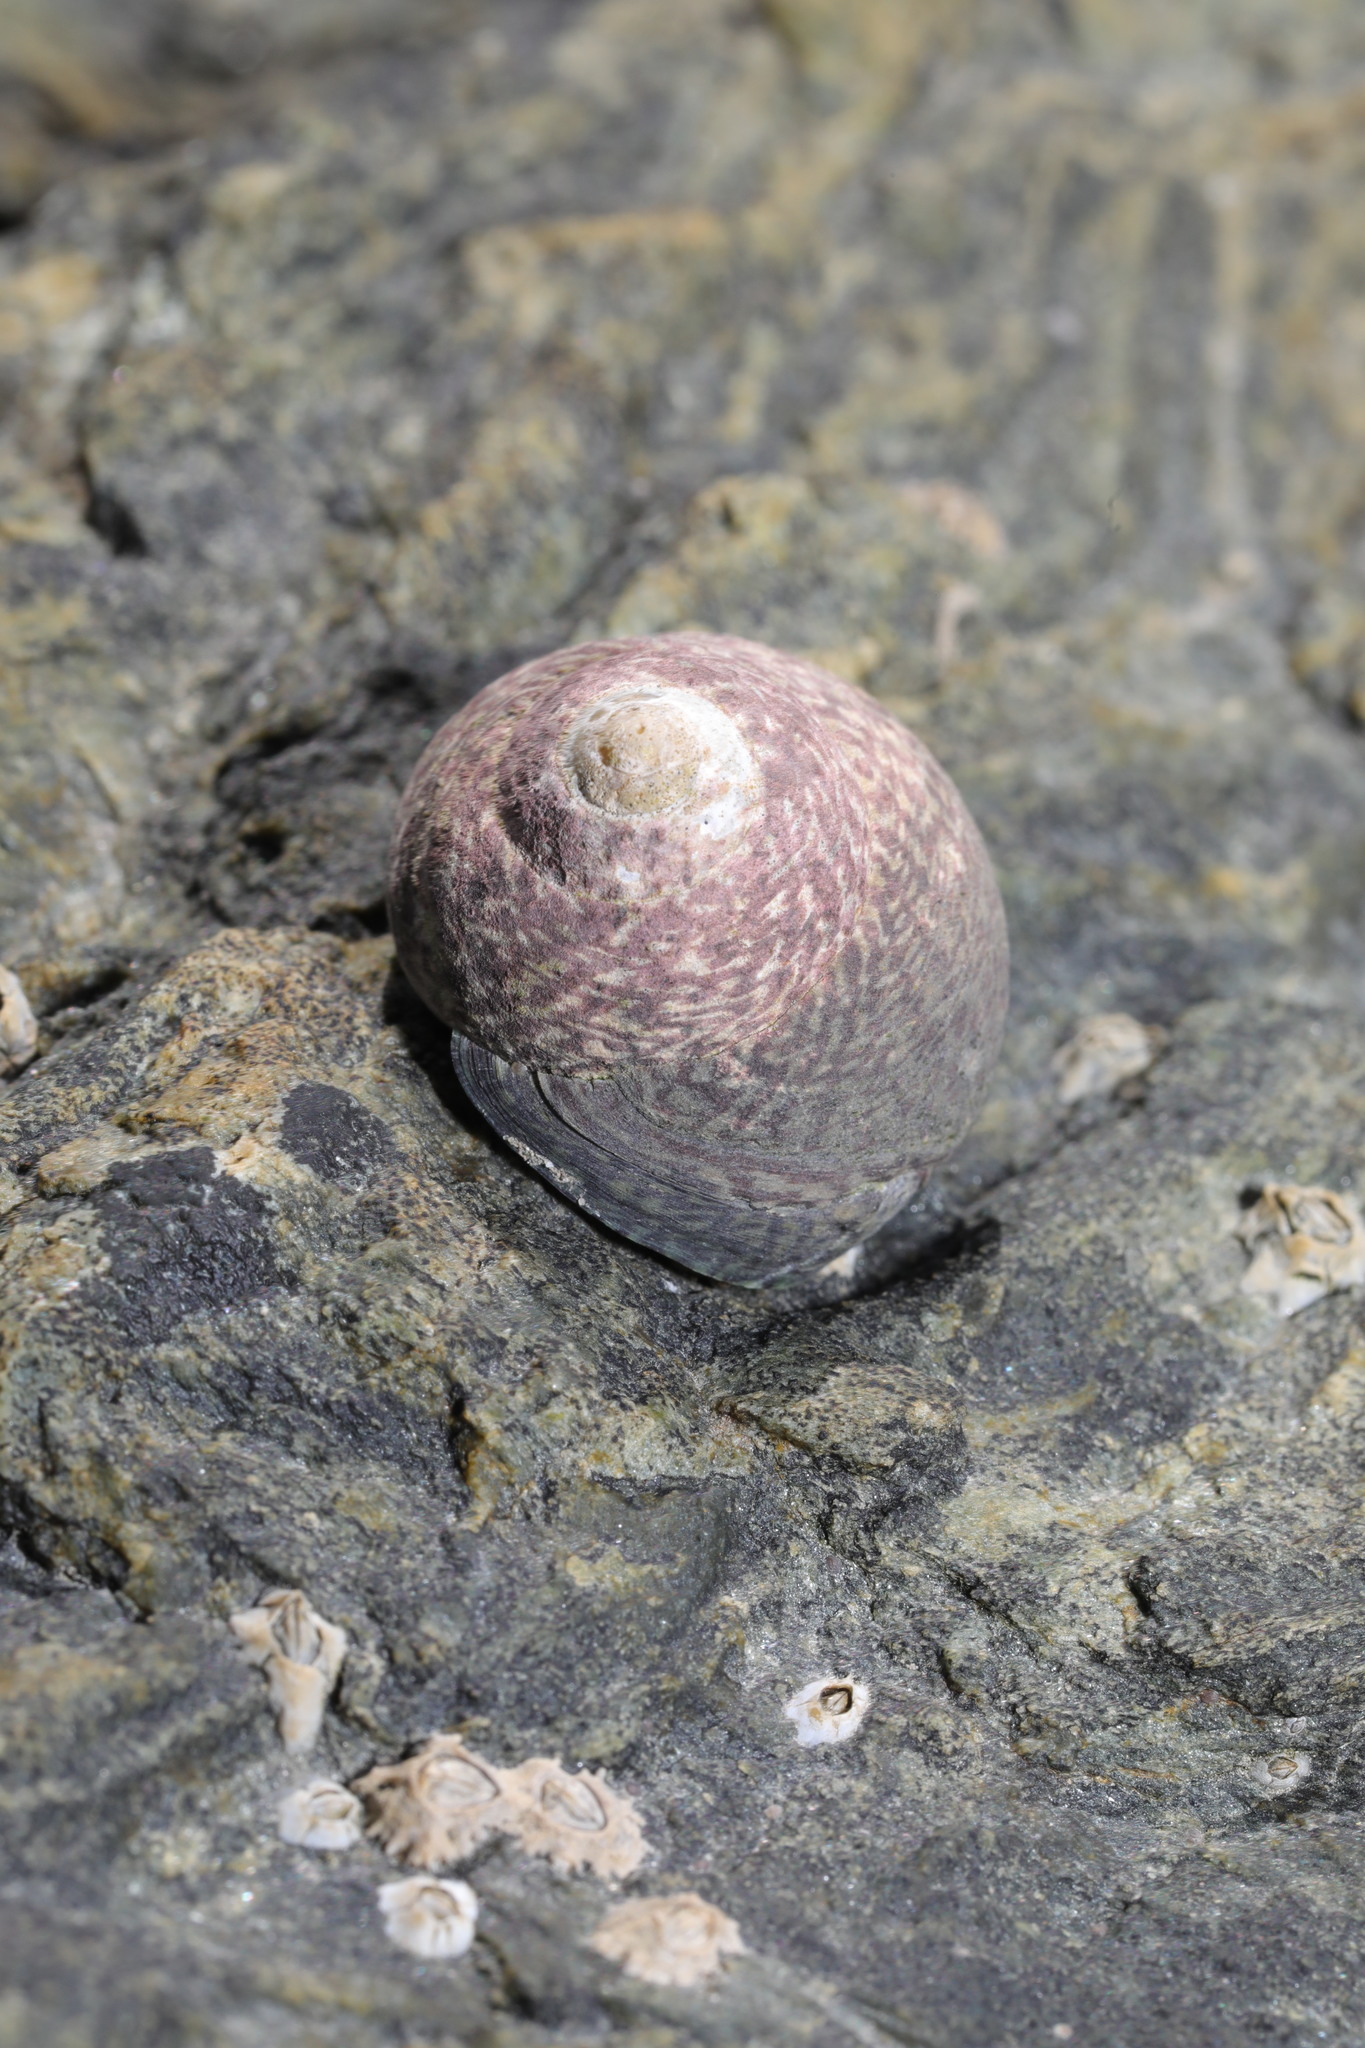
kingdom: Animalia
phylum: Mollusca
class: Gastropoda
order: Trochida
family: Trochidae
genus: Phorcus
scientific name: Phorcus lineatus
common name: Toothed top shell
